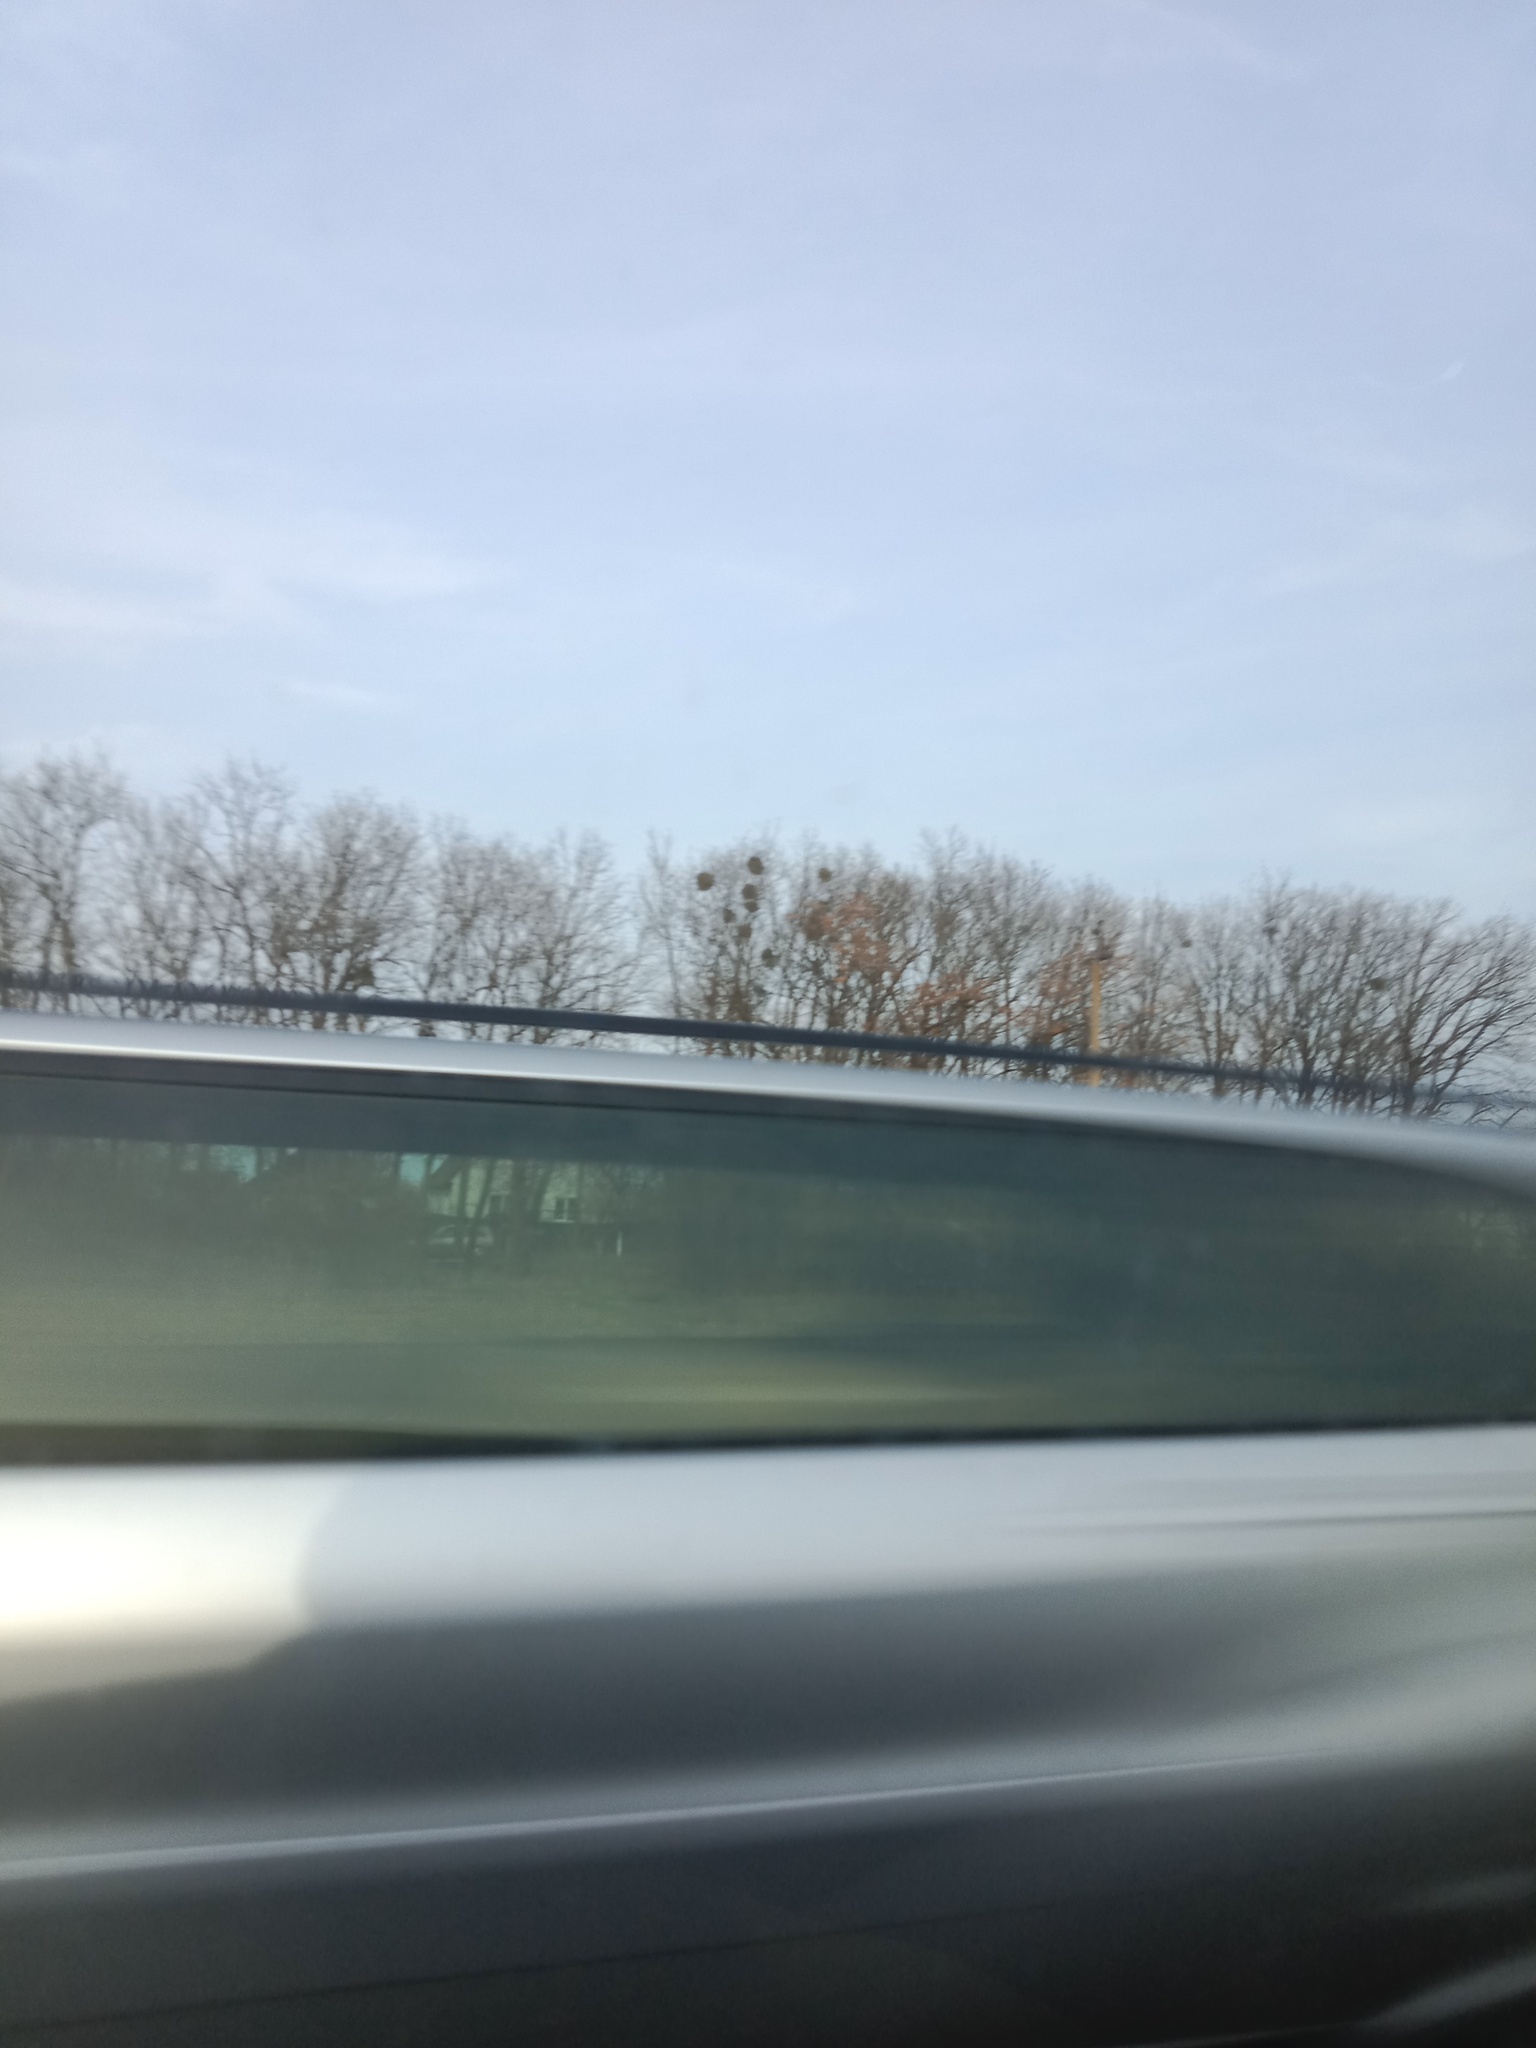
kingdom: Plantae
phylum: Tracheophyta
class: Magnoliopsida
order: Santalales
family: Viscaceae
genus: Viscum
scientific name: Viscum album
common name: Mistletoe
